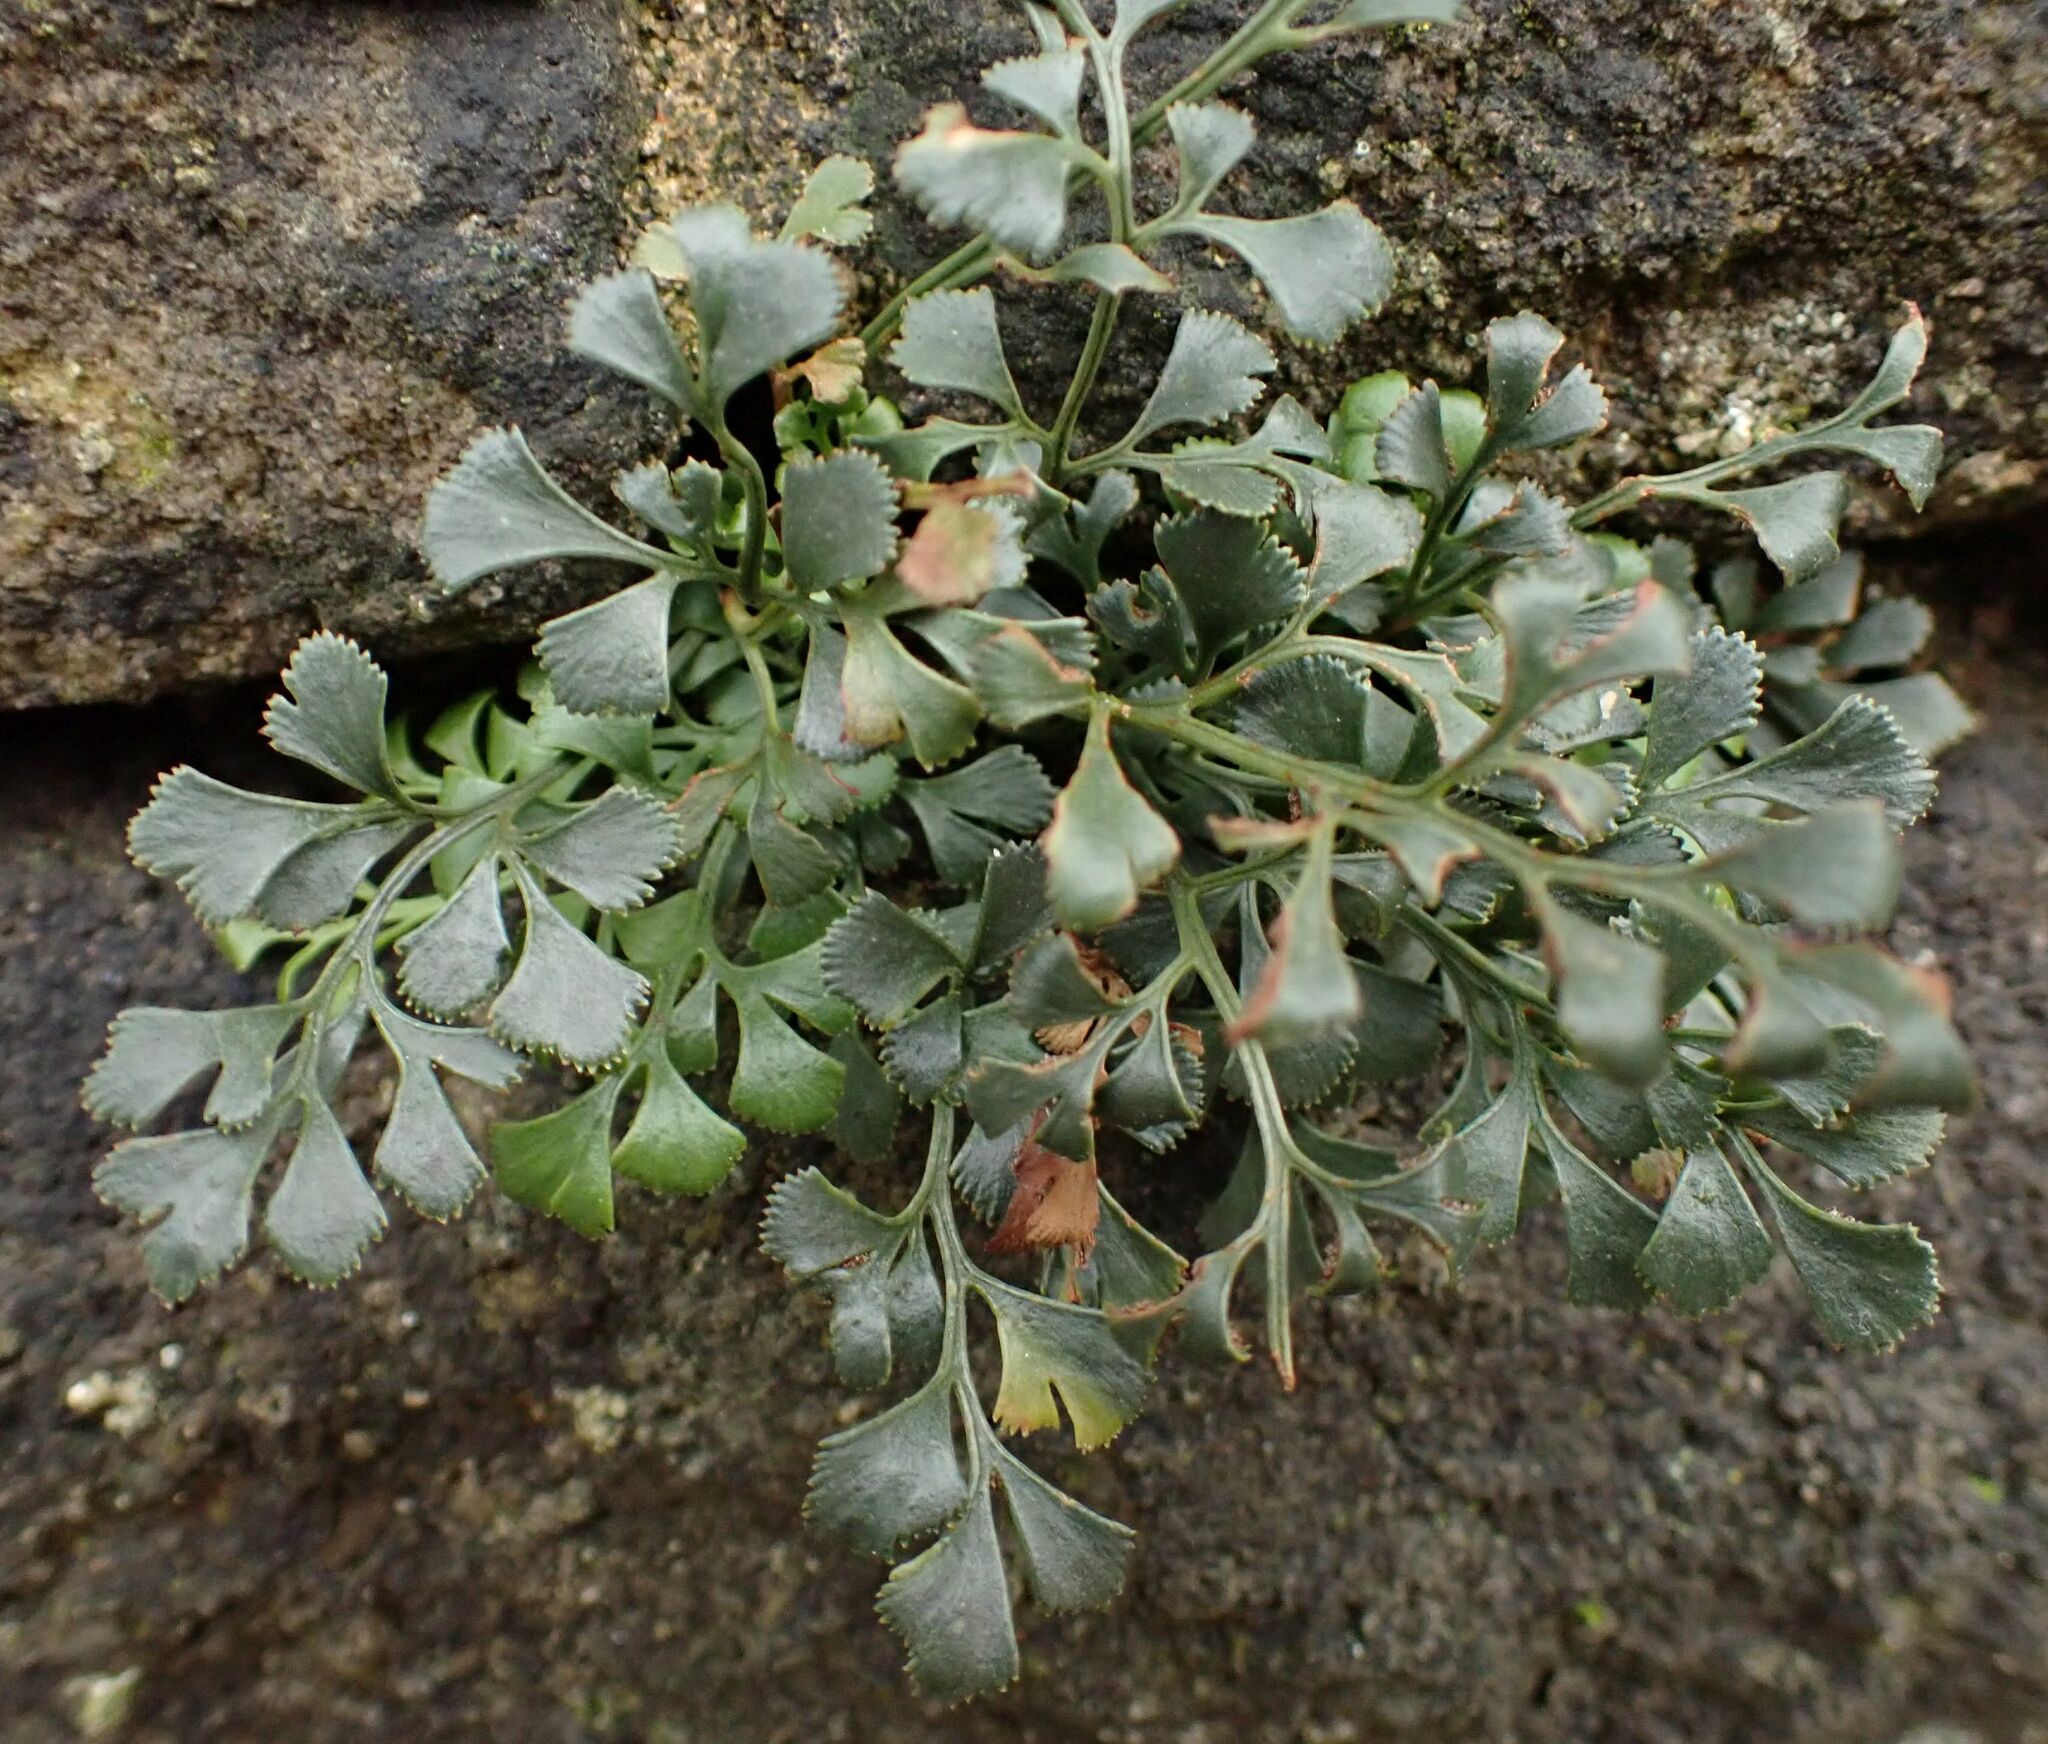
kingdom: Plantae
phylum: Tracheophyta
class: Polypodiopsida
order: Polypodiales
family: Aspleniaceae
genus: Asplenium
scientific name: Asplenium ruta-muraria
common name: Wall-rue
